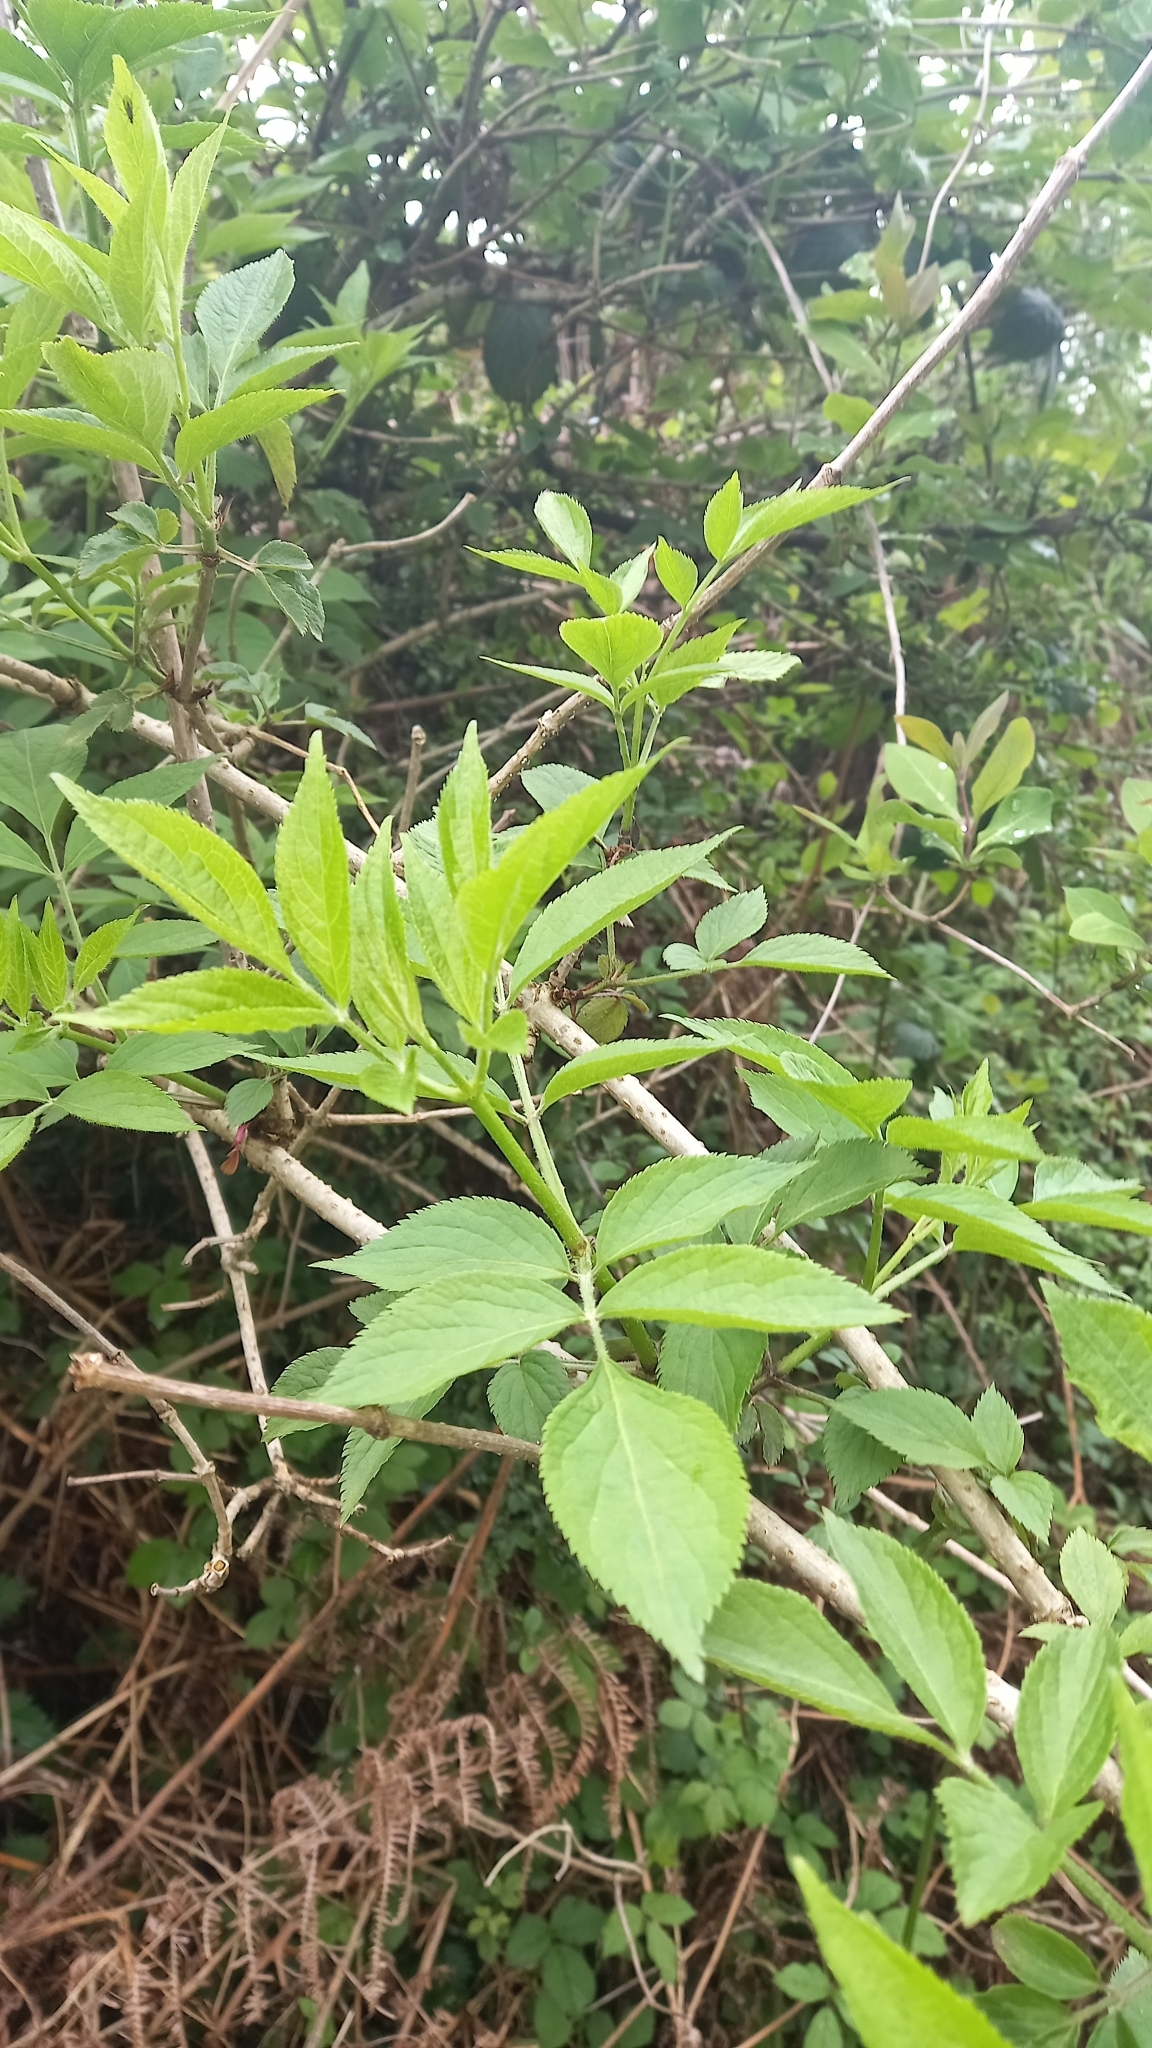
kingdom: Plantae
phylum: Tracheophyta
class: Magnoliopsida
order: Dipsacales
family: Viburnaceae
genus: Sambucus
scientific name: Sambucus nigra
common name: Elder
